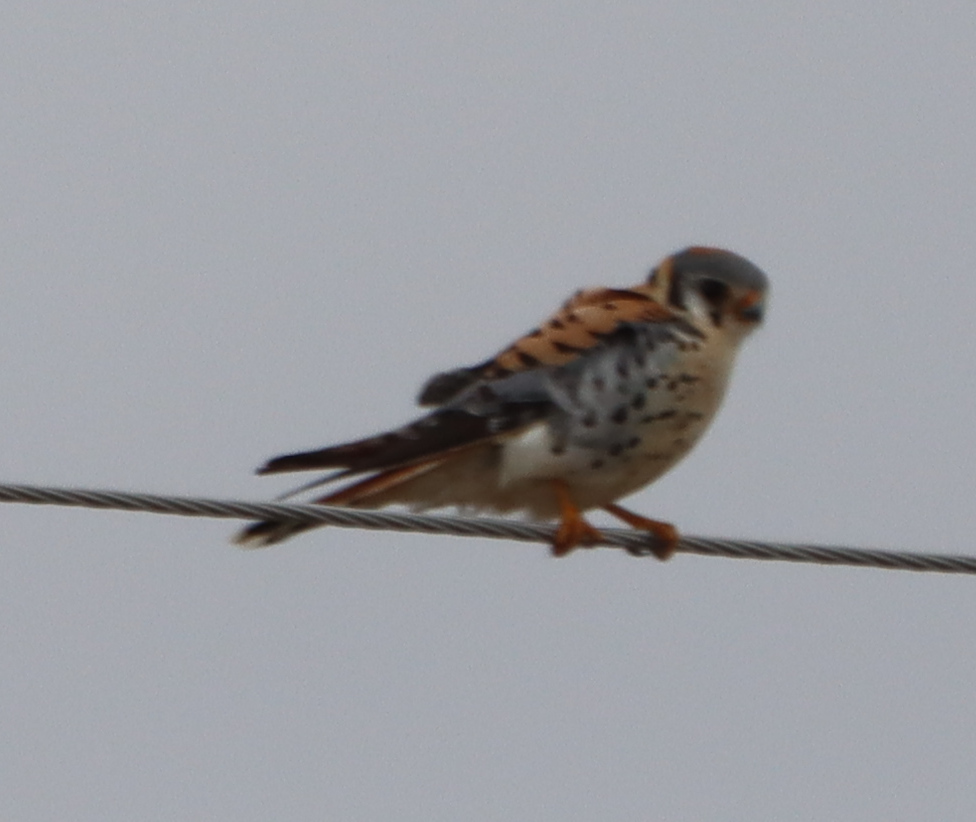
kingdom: Animalia
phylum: Chordata
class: Aves
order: Falconiformes
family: Falconidae
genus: Falco
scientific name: Falco sparverius
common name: American kestrel
